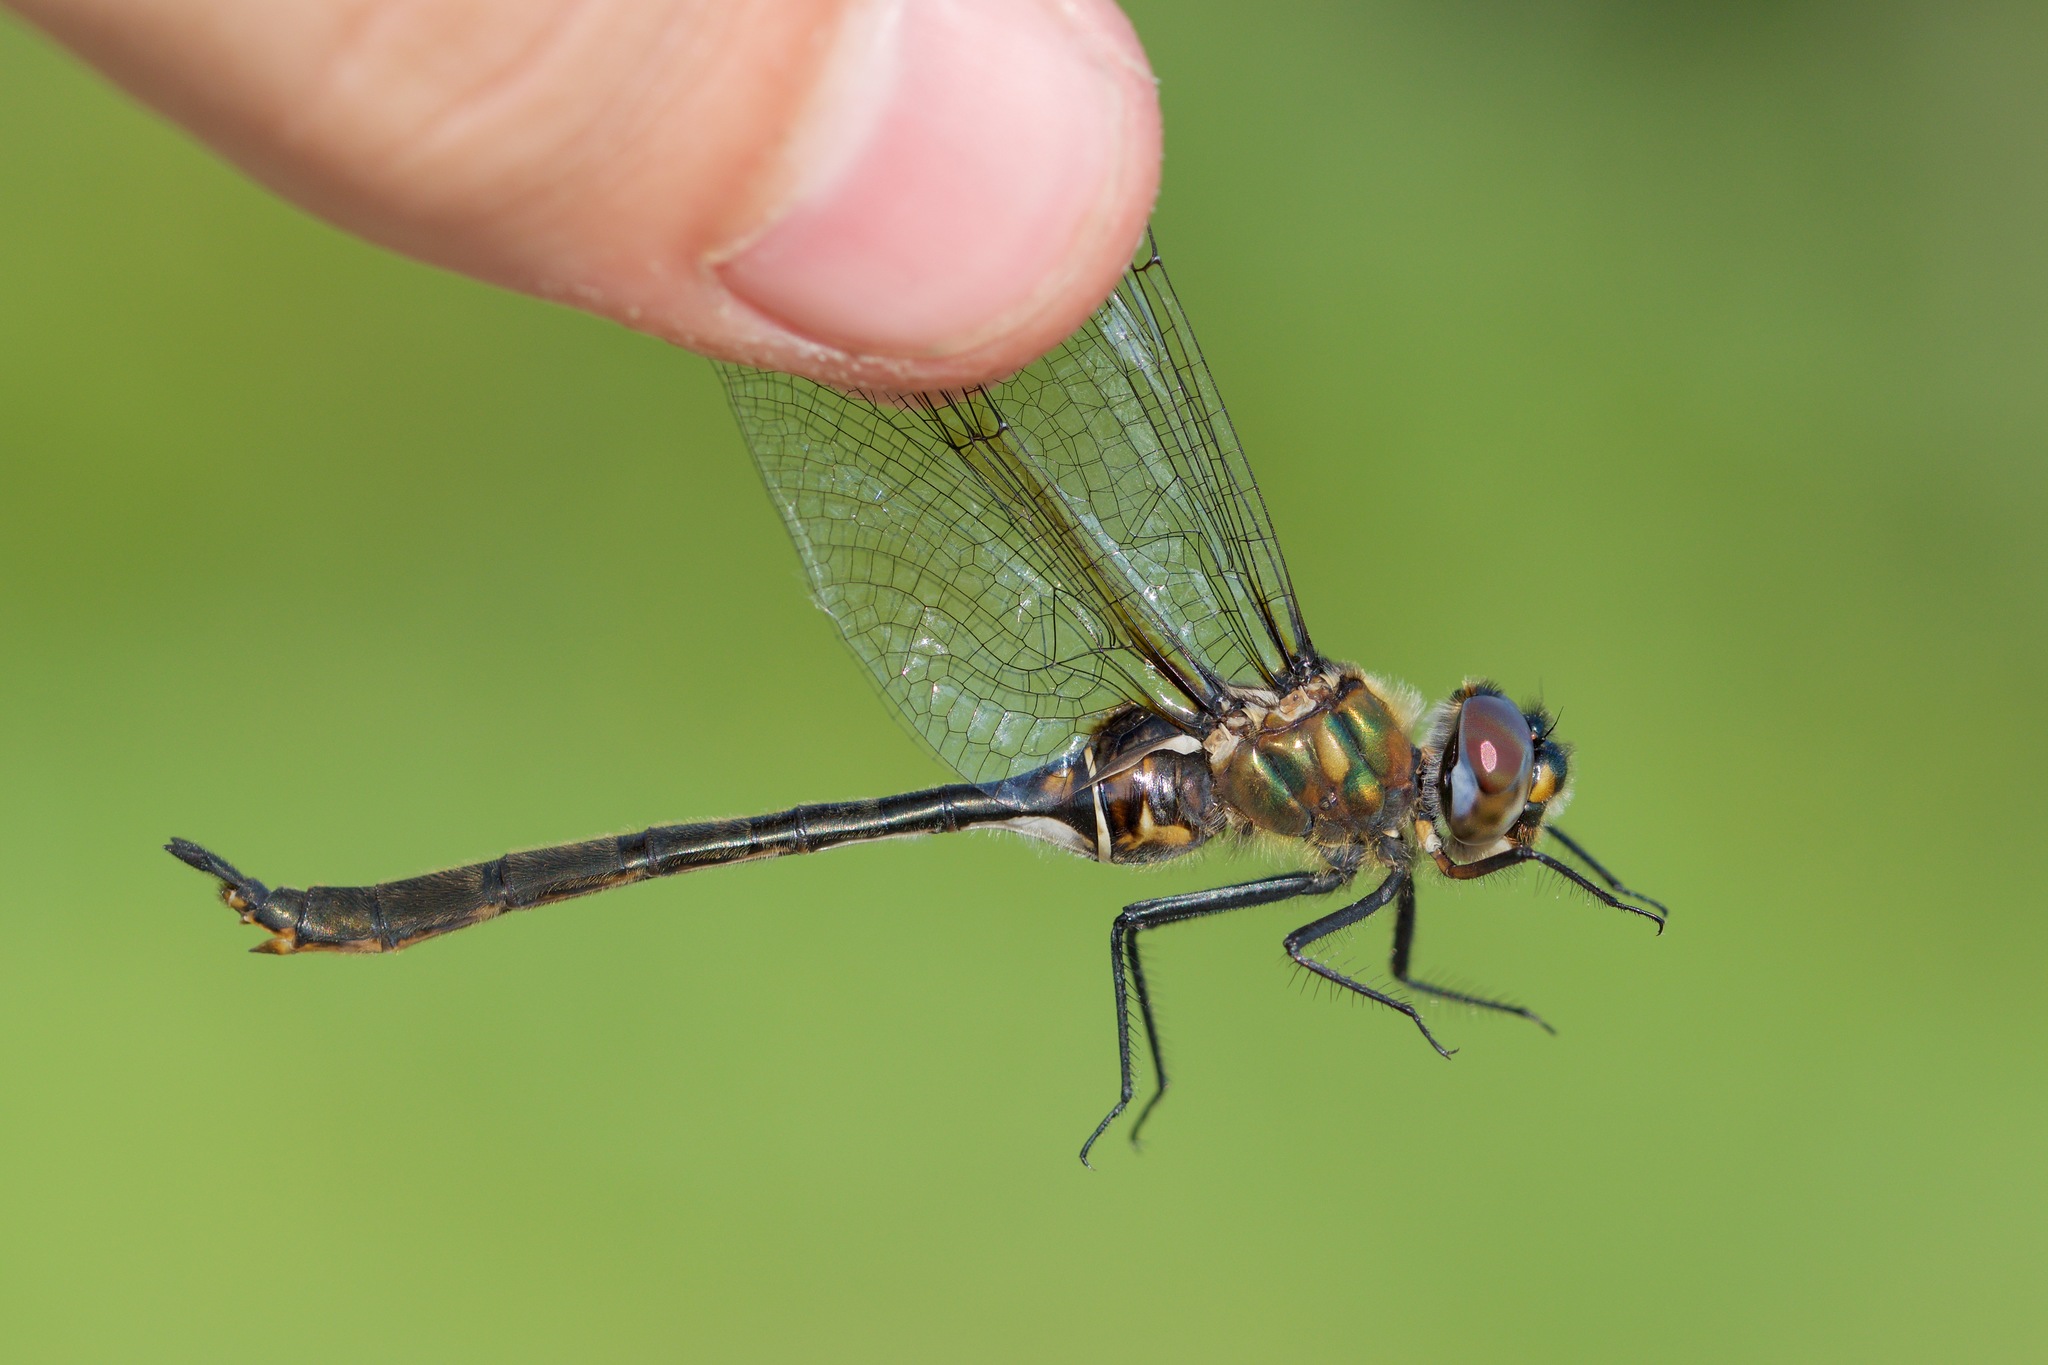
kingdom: Animalia
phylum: Arthropoda
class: Insecta
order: Odonata
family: Corduliidae
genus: Somatochlora
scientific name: Somatochlora franklini
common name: Delicate emerald
